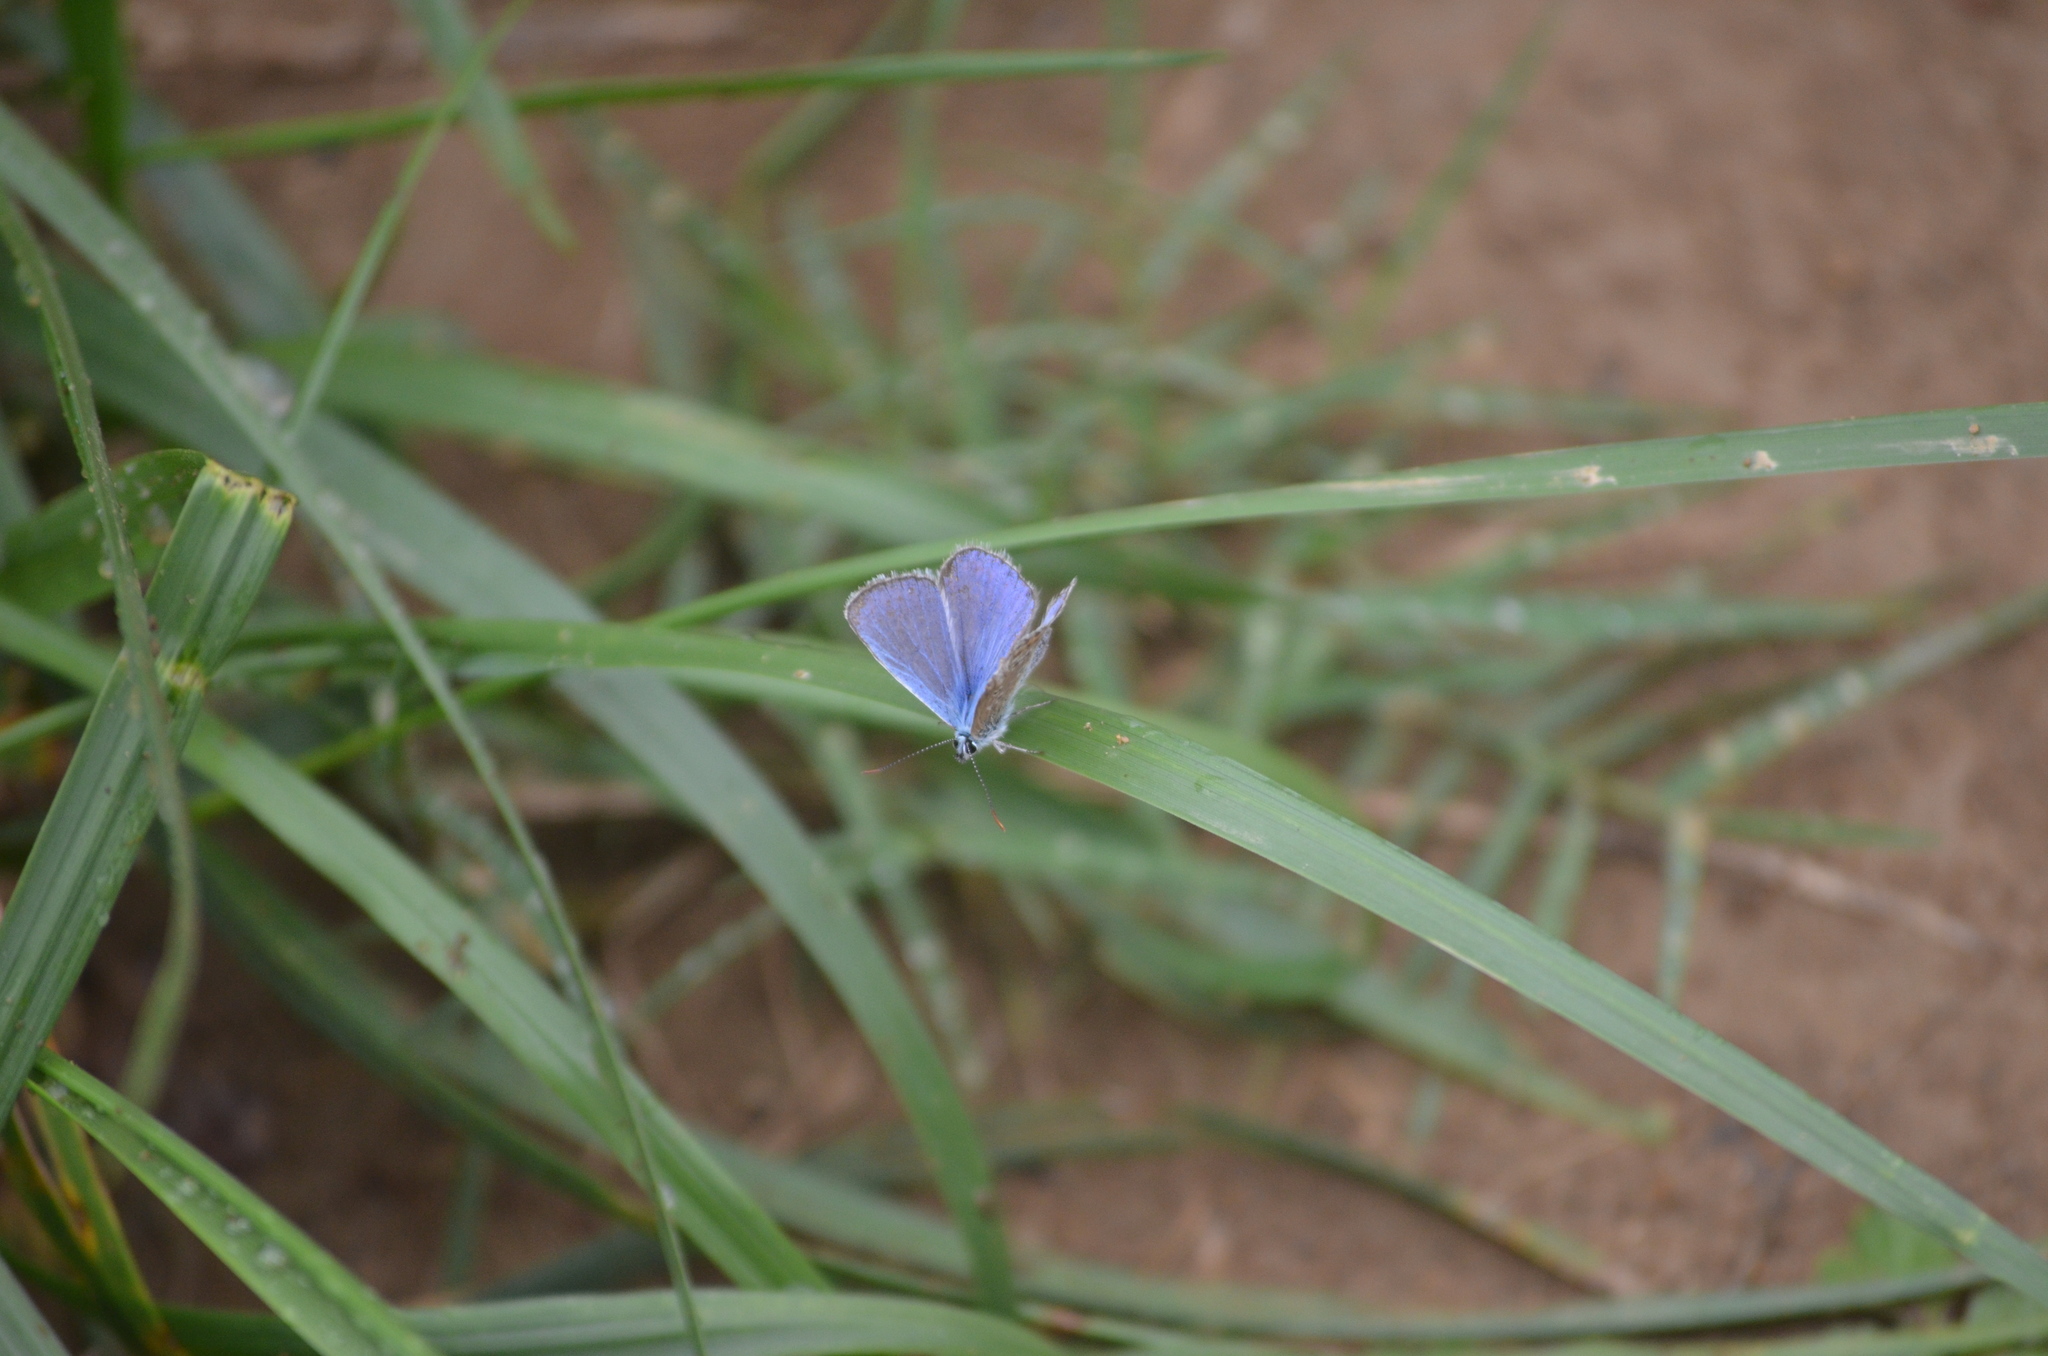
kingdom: Animalia
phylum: Arthropoda
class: Insecta
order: Lepidoptera
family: Lycaenidae
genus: Polyommatus
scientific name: Polyommatus icarus
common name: Common blue
